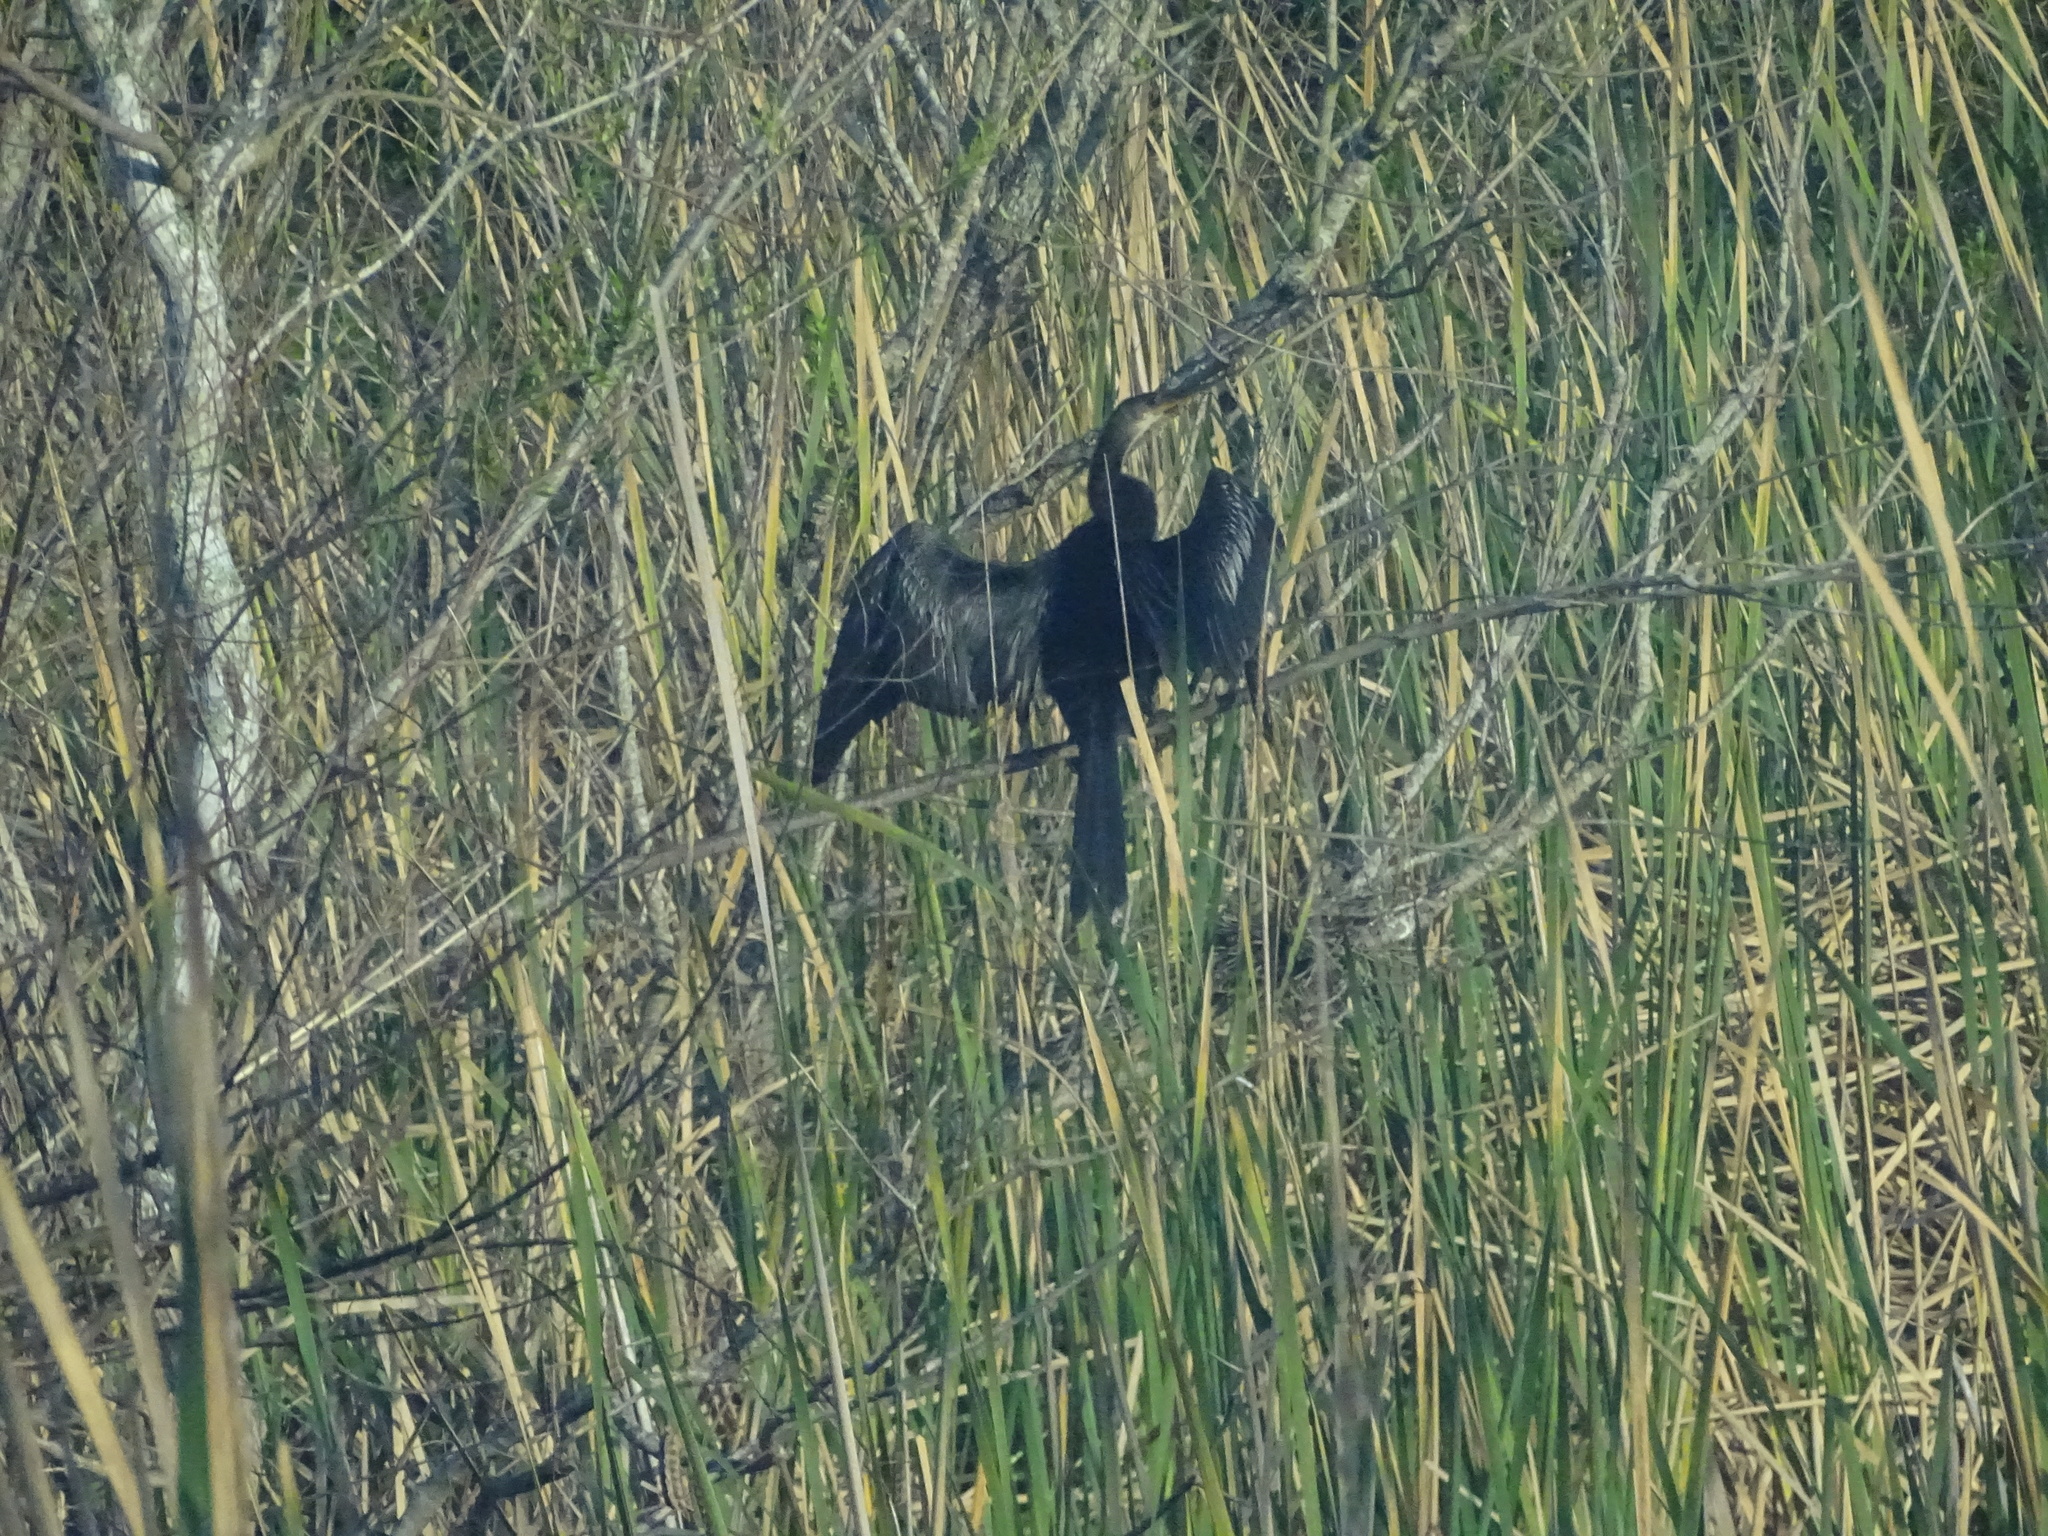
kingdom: Animalia
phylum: Chordata
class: Aves
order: Suliformes
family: Anhingidae
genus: Anhinga
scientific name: Anhinga anhinga
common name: Anhinga
